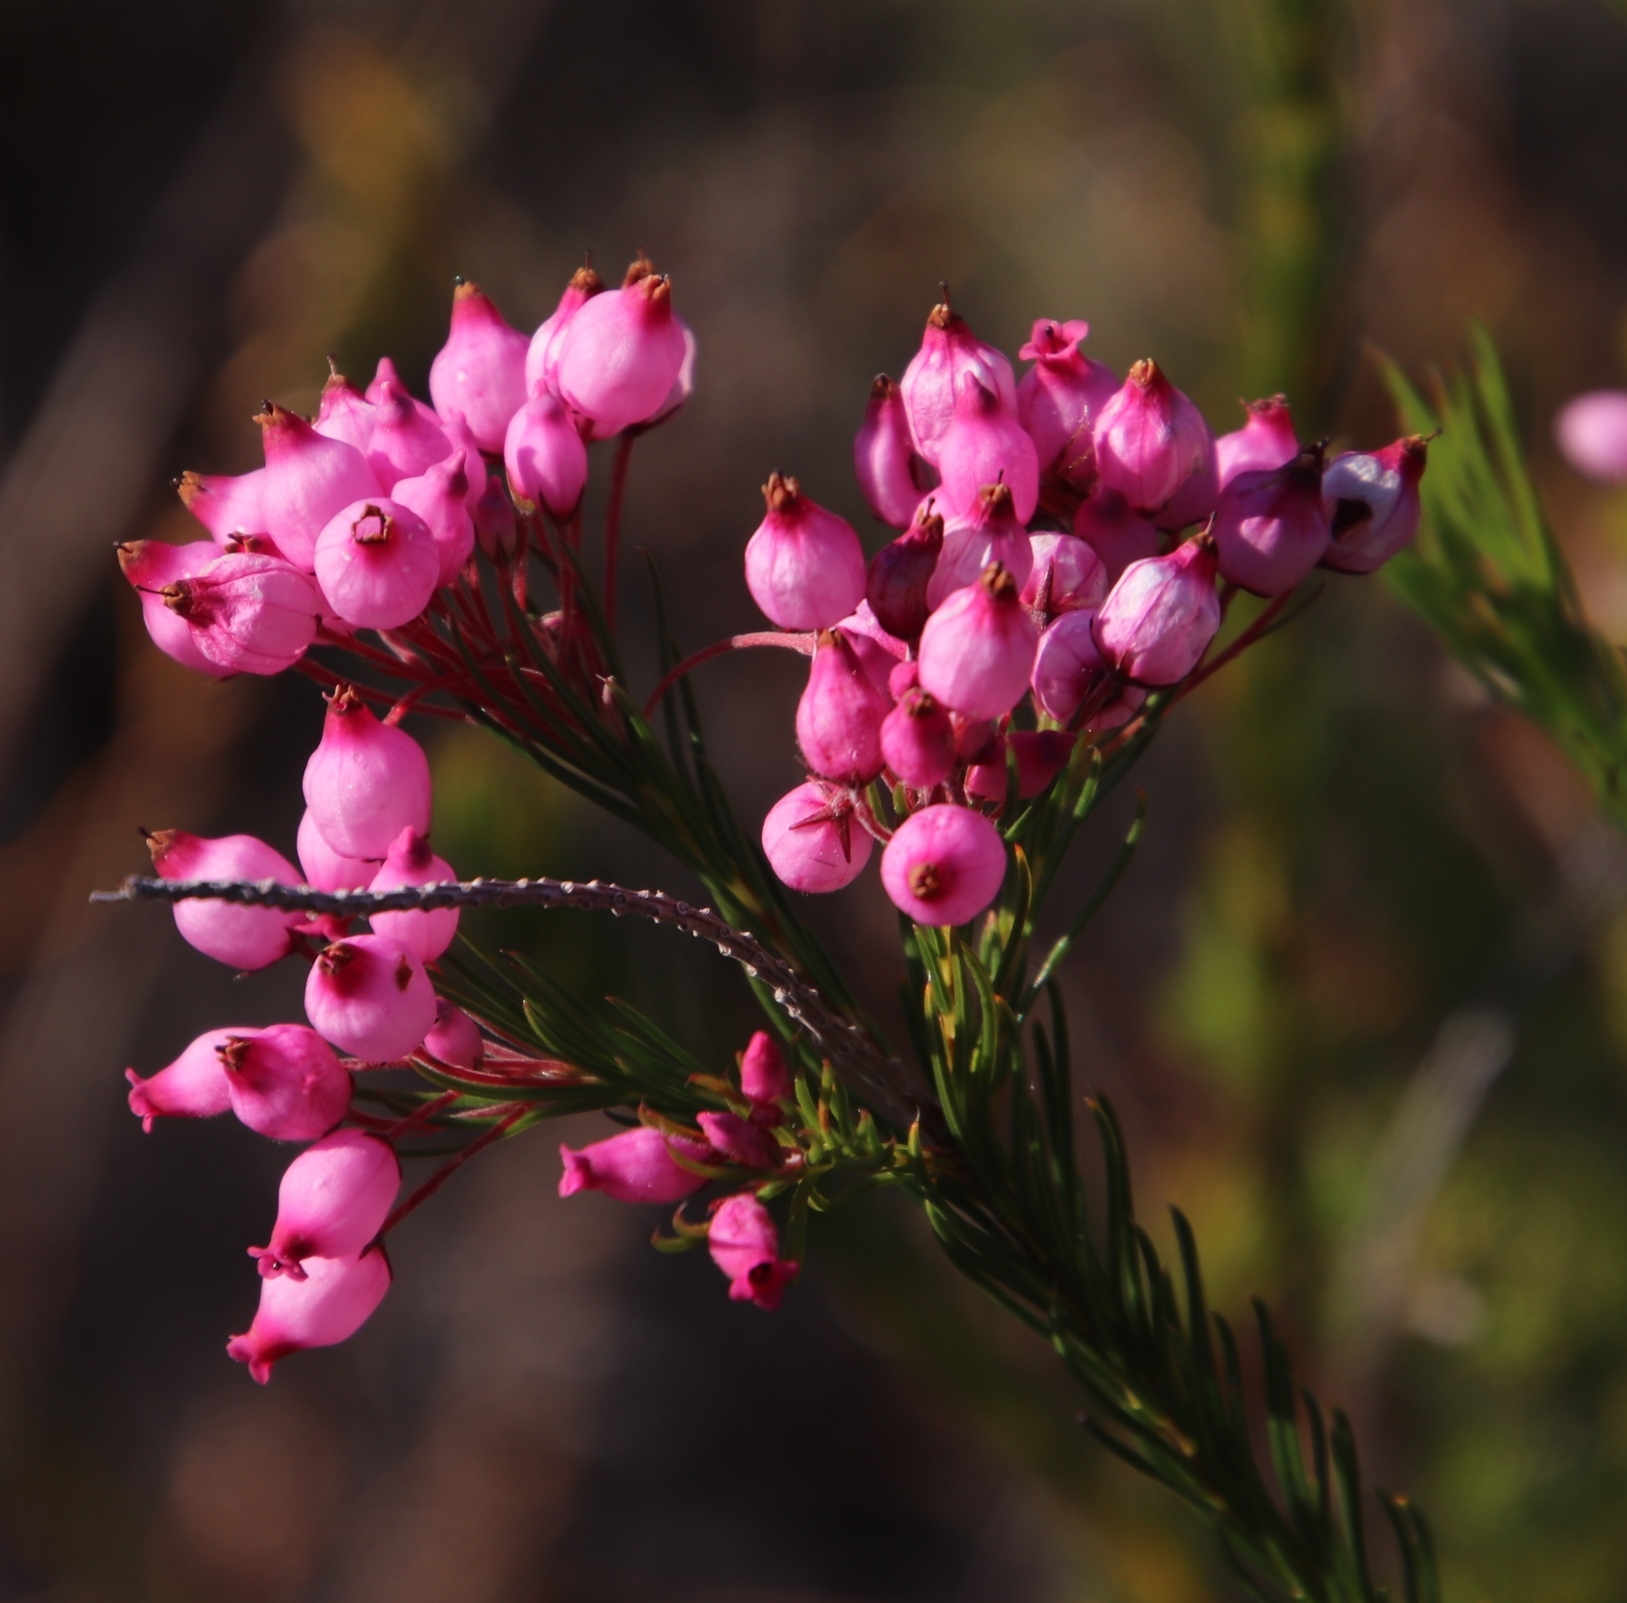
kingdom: Plantae
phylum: Tracheophyta
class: Magnoliopsida
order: Ericales
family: Ericaceae
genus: Erica
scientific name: Erica inflata
